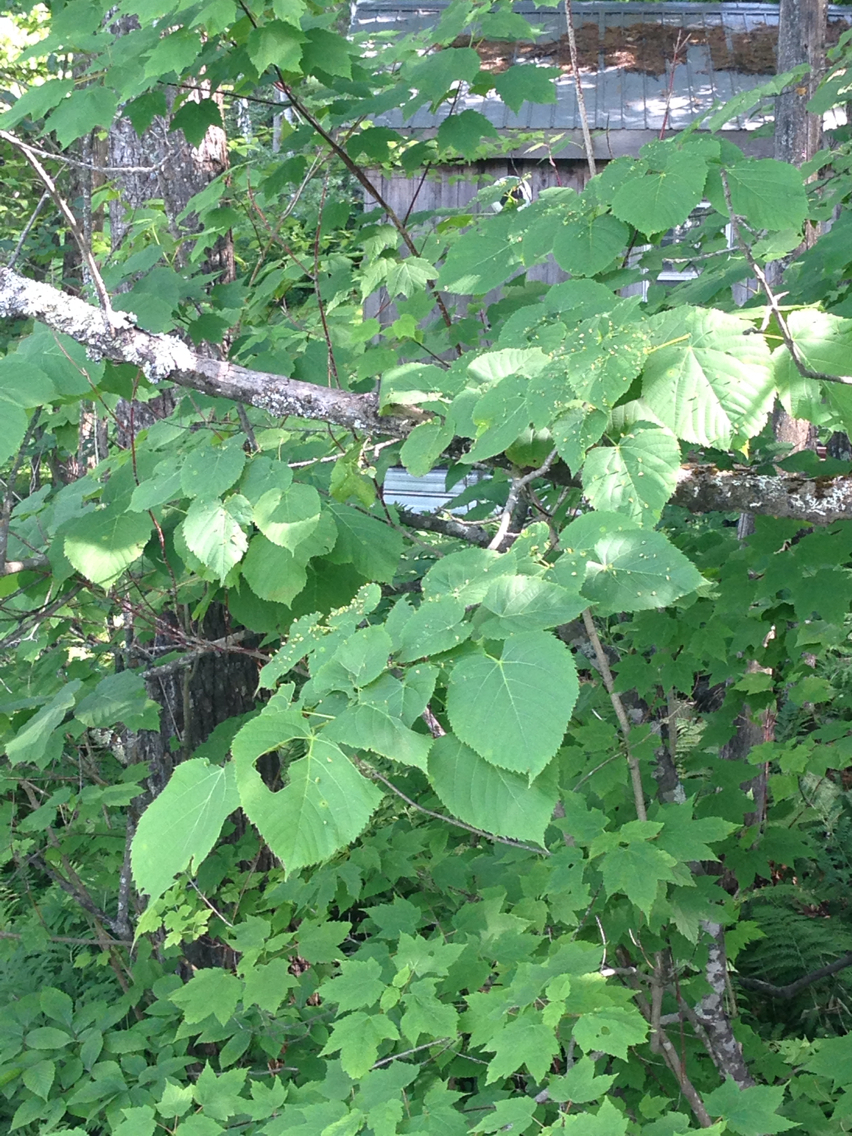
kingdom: Plantae
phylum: Tracheophyta
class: Magnoliopsida
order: Malvales
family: Malvaceae
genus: Tilia
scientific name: Tilia americana
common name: Basswood
